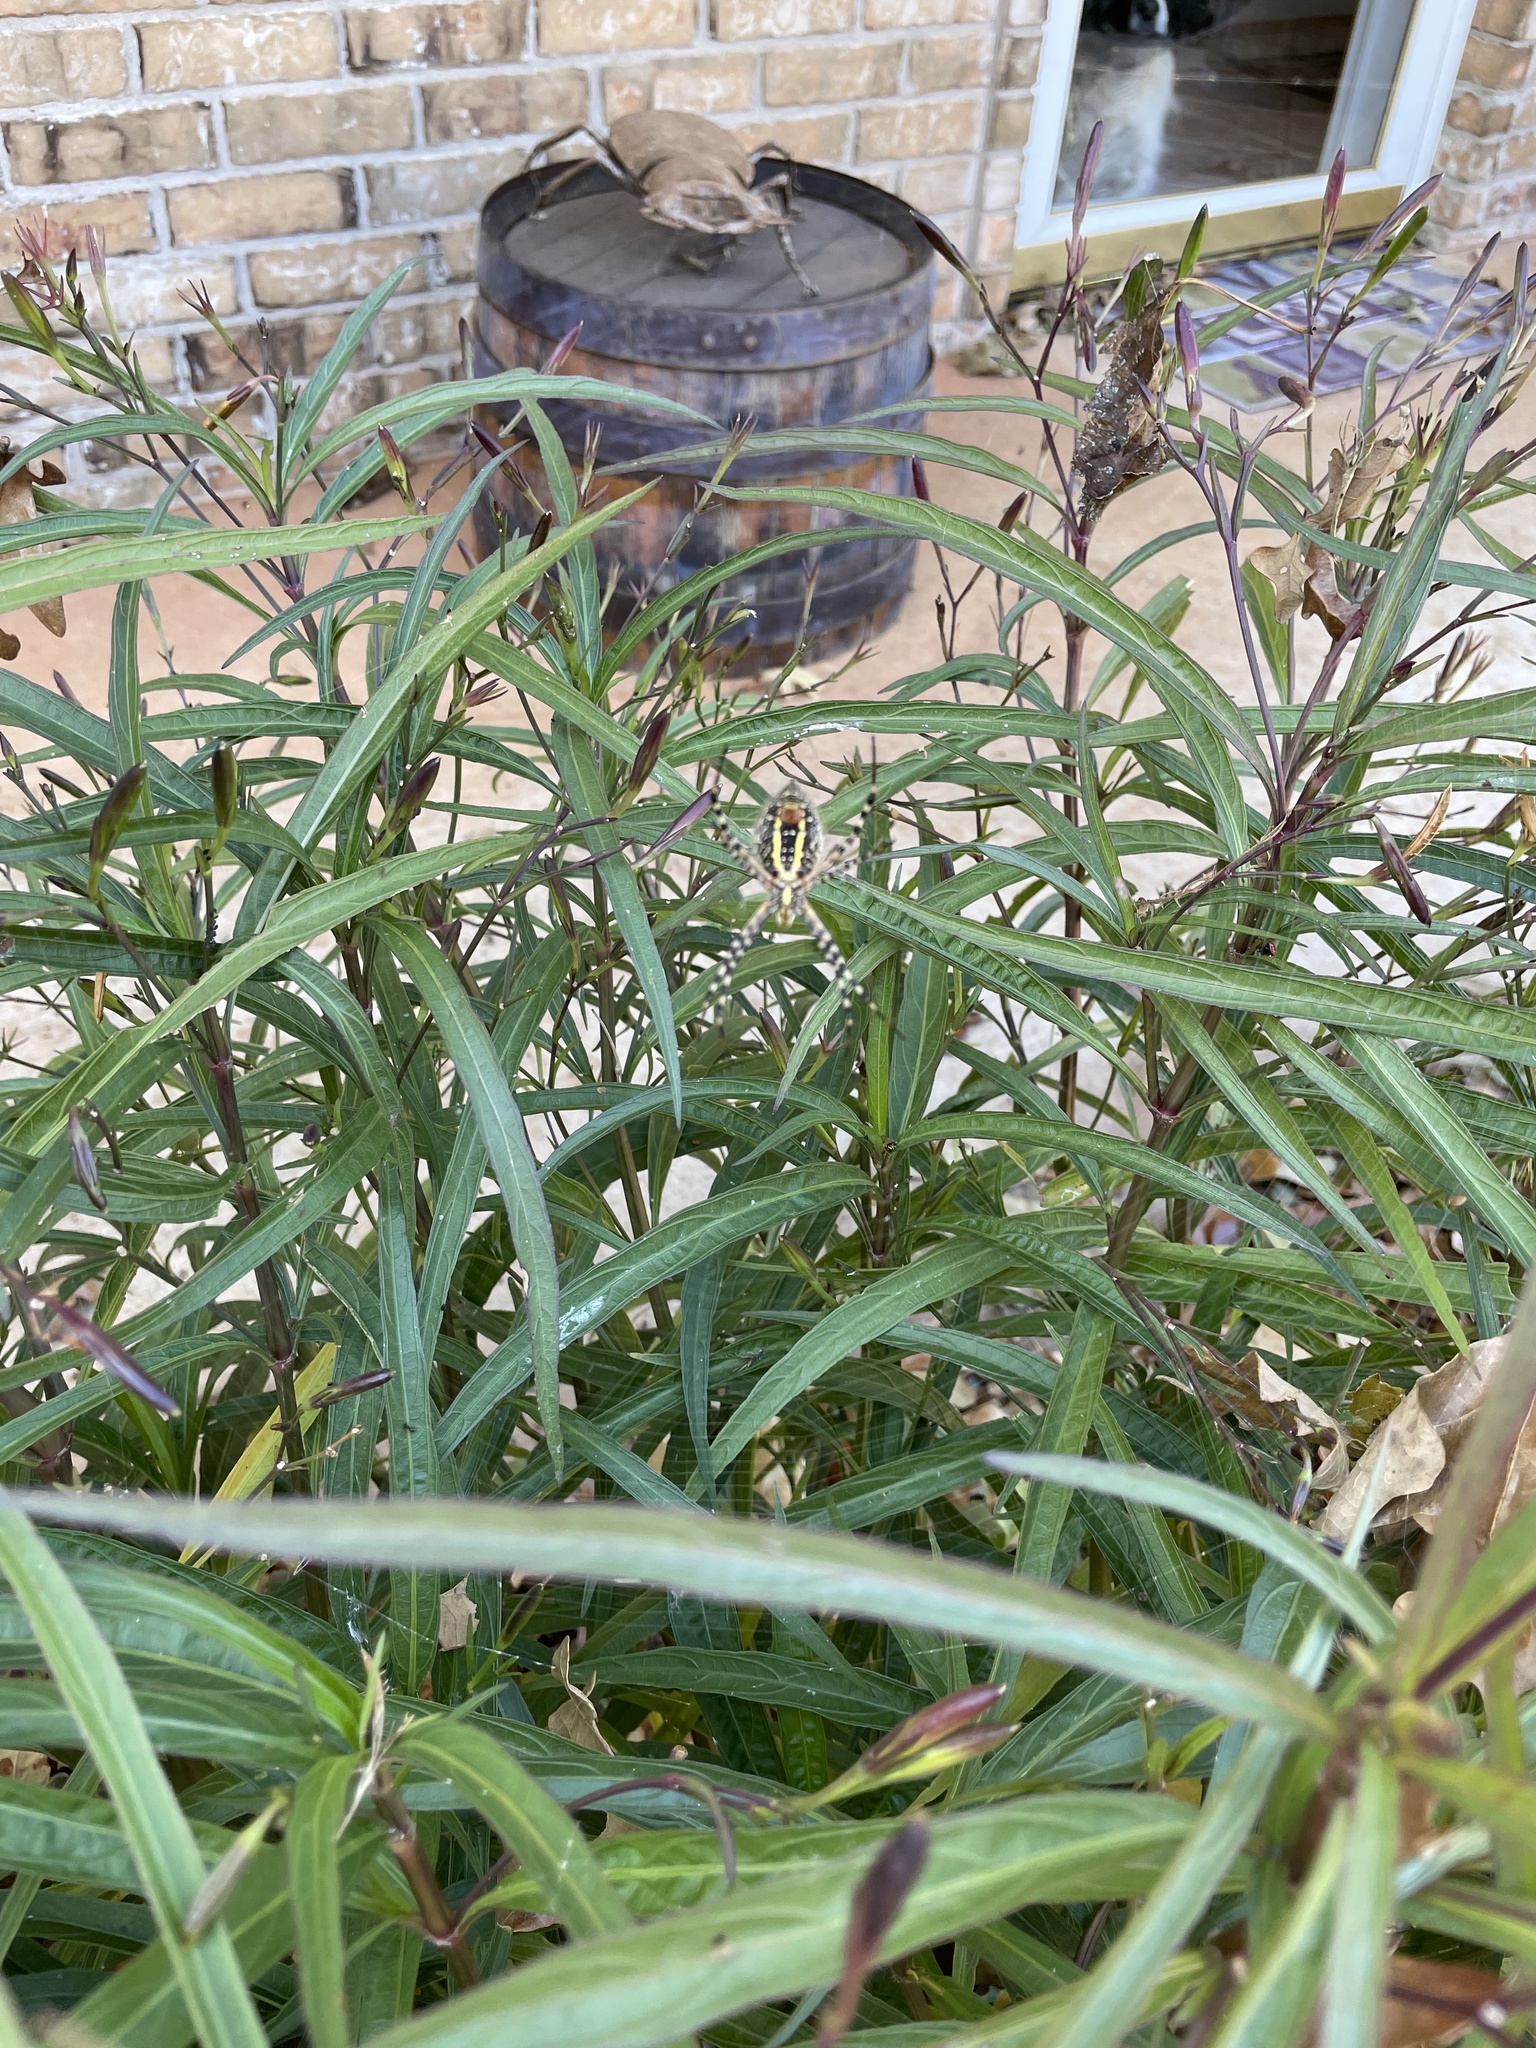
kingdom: Animalia
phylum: Arthropoda
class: Arachnida
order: Araneae
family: Araneidae
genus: Argiope
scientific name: Argiope trifasciata
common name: Banded garden spider
